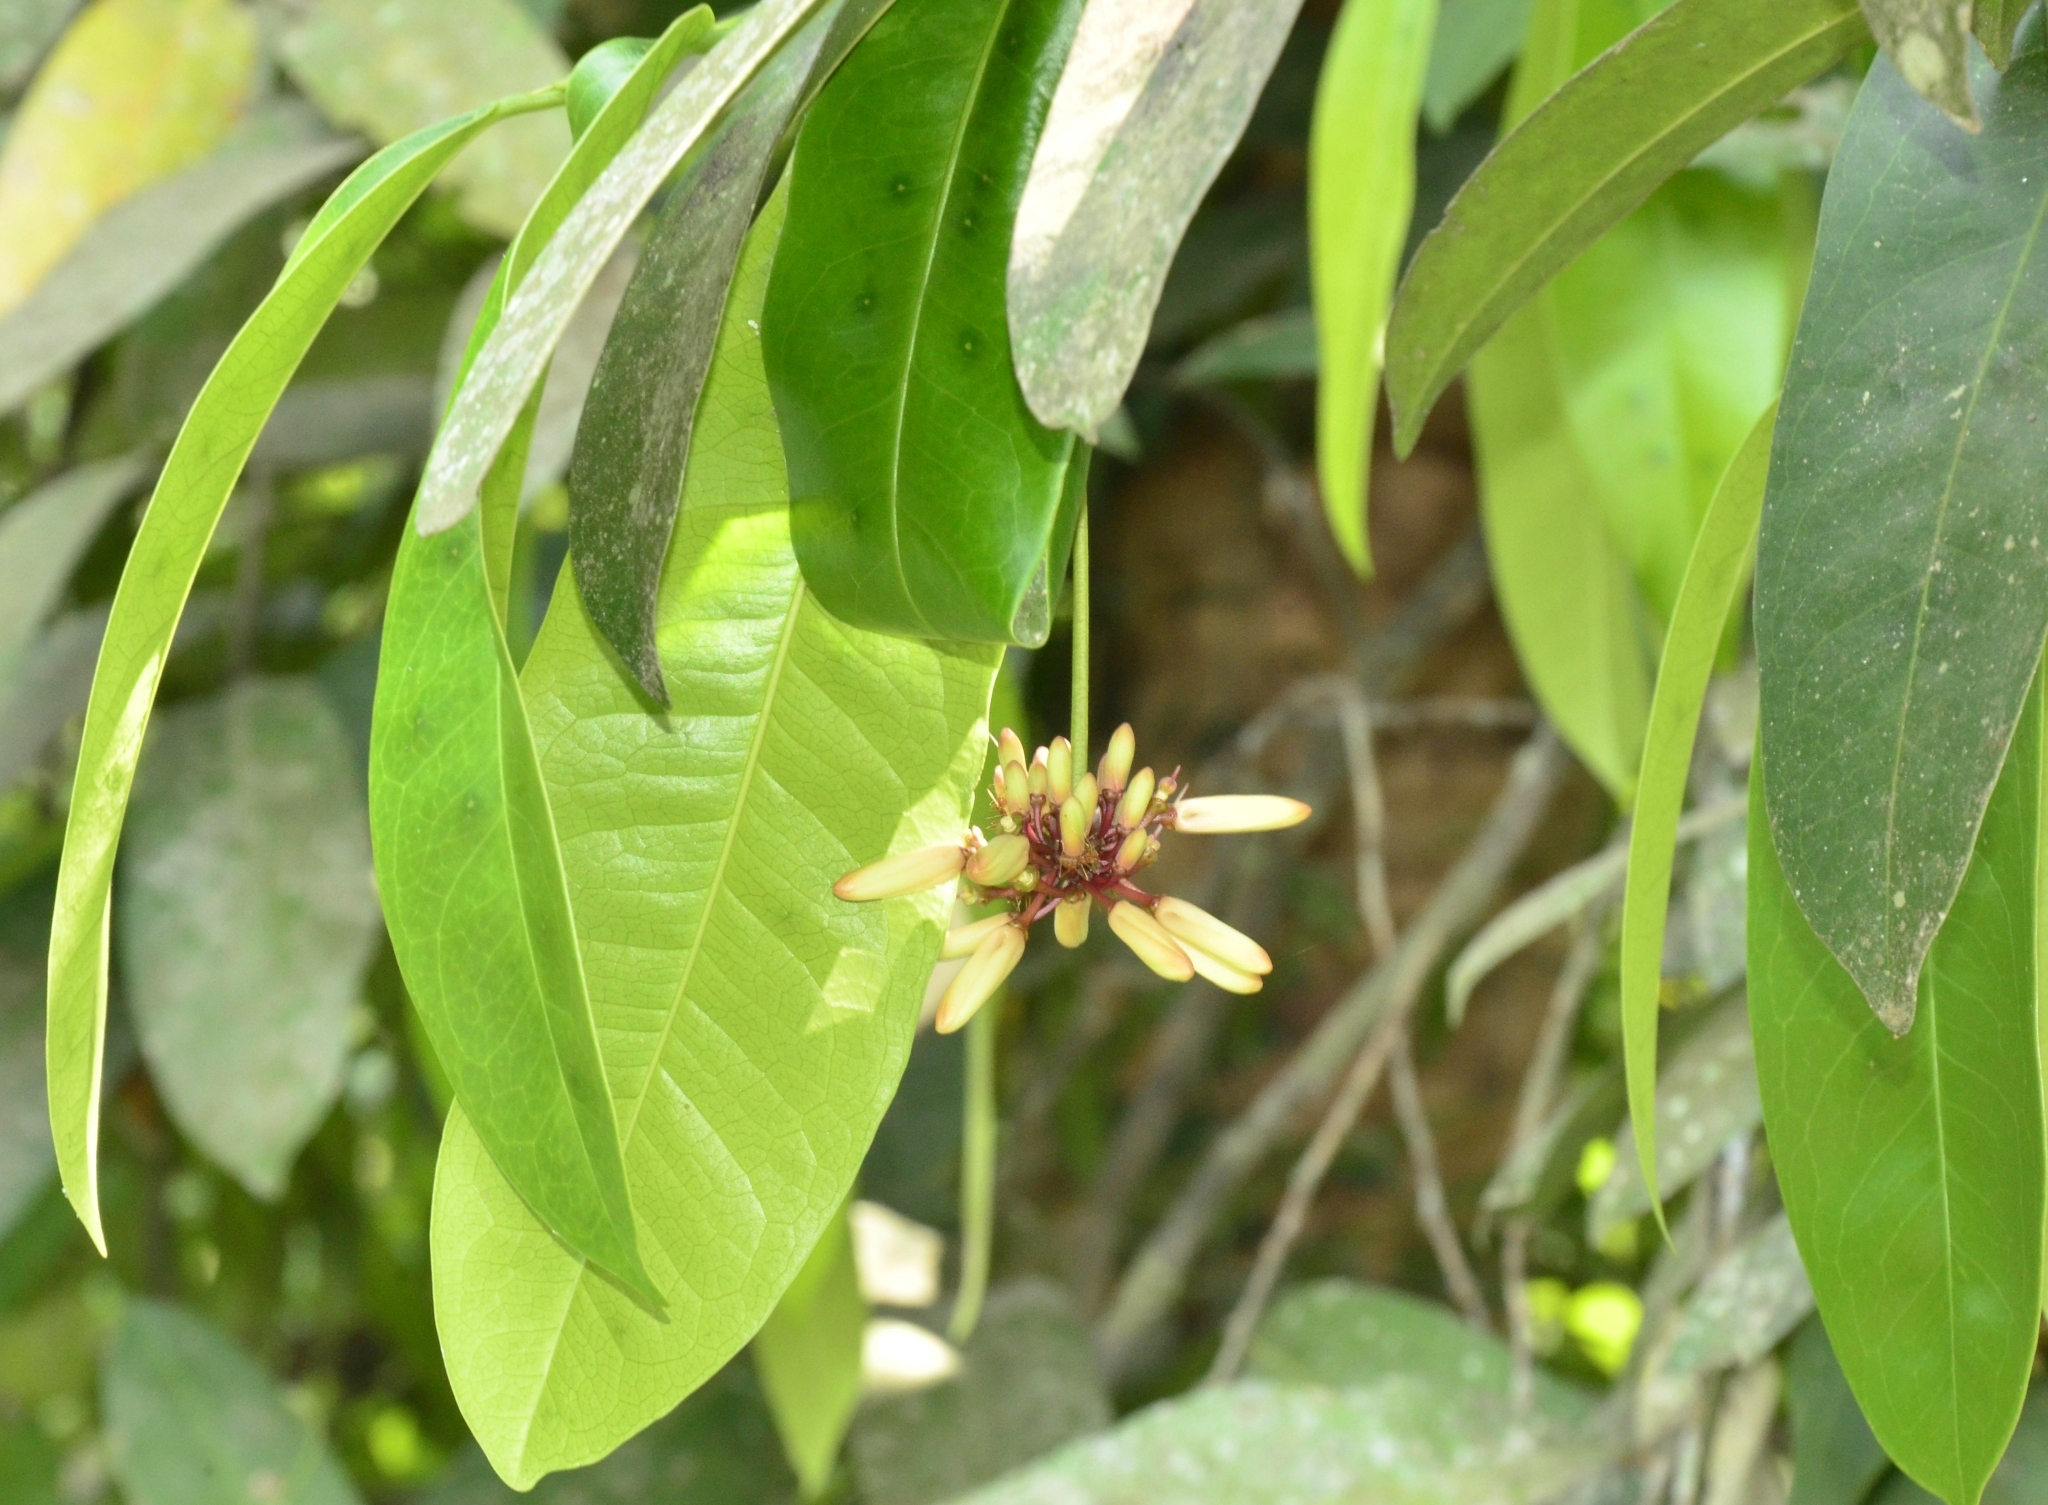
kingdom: Plantae
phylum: Tracheophyta
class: Magnoliopsida
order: Sapindales
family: Simaroubaceae
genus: Samadera
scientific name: Samadera indica
